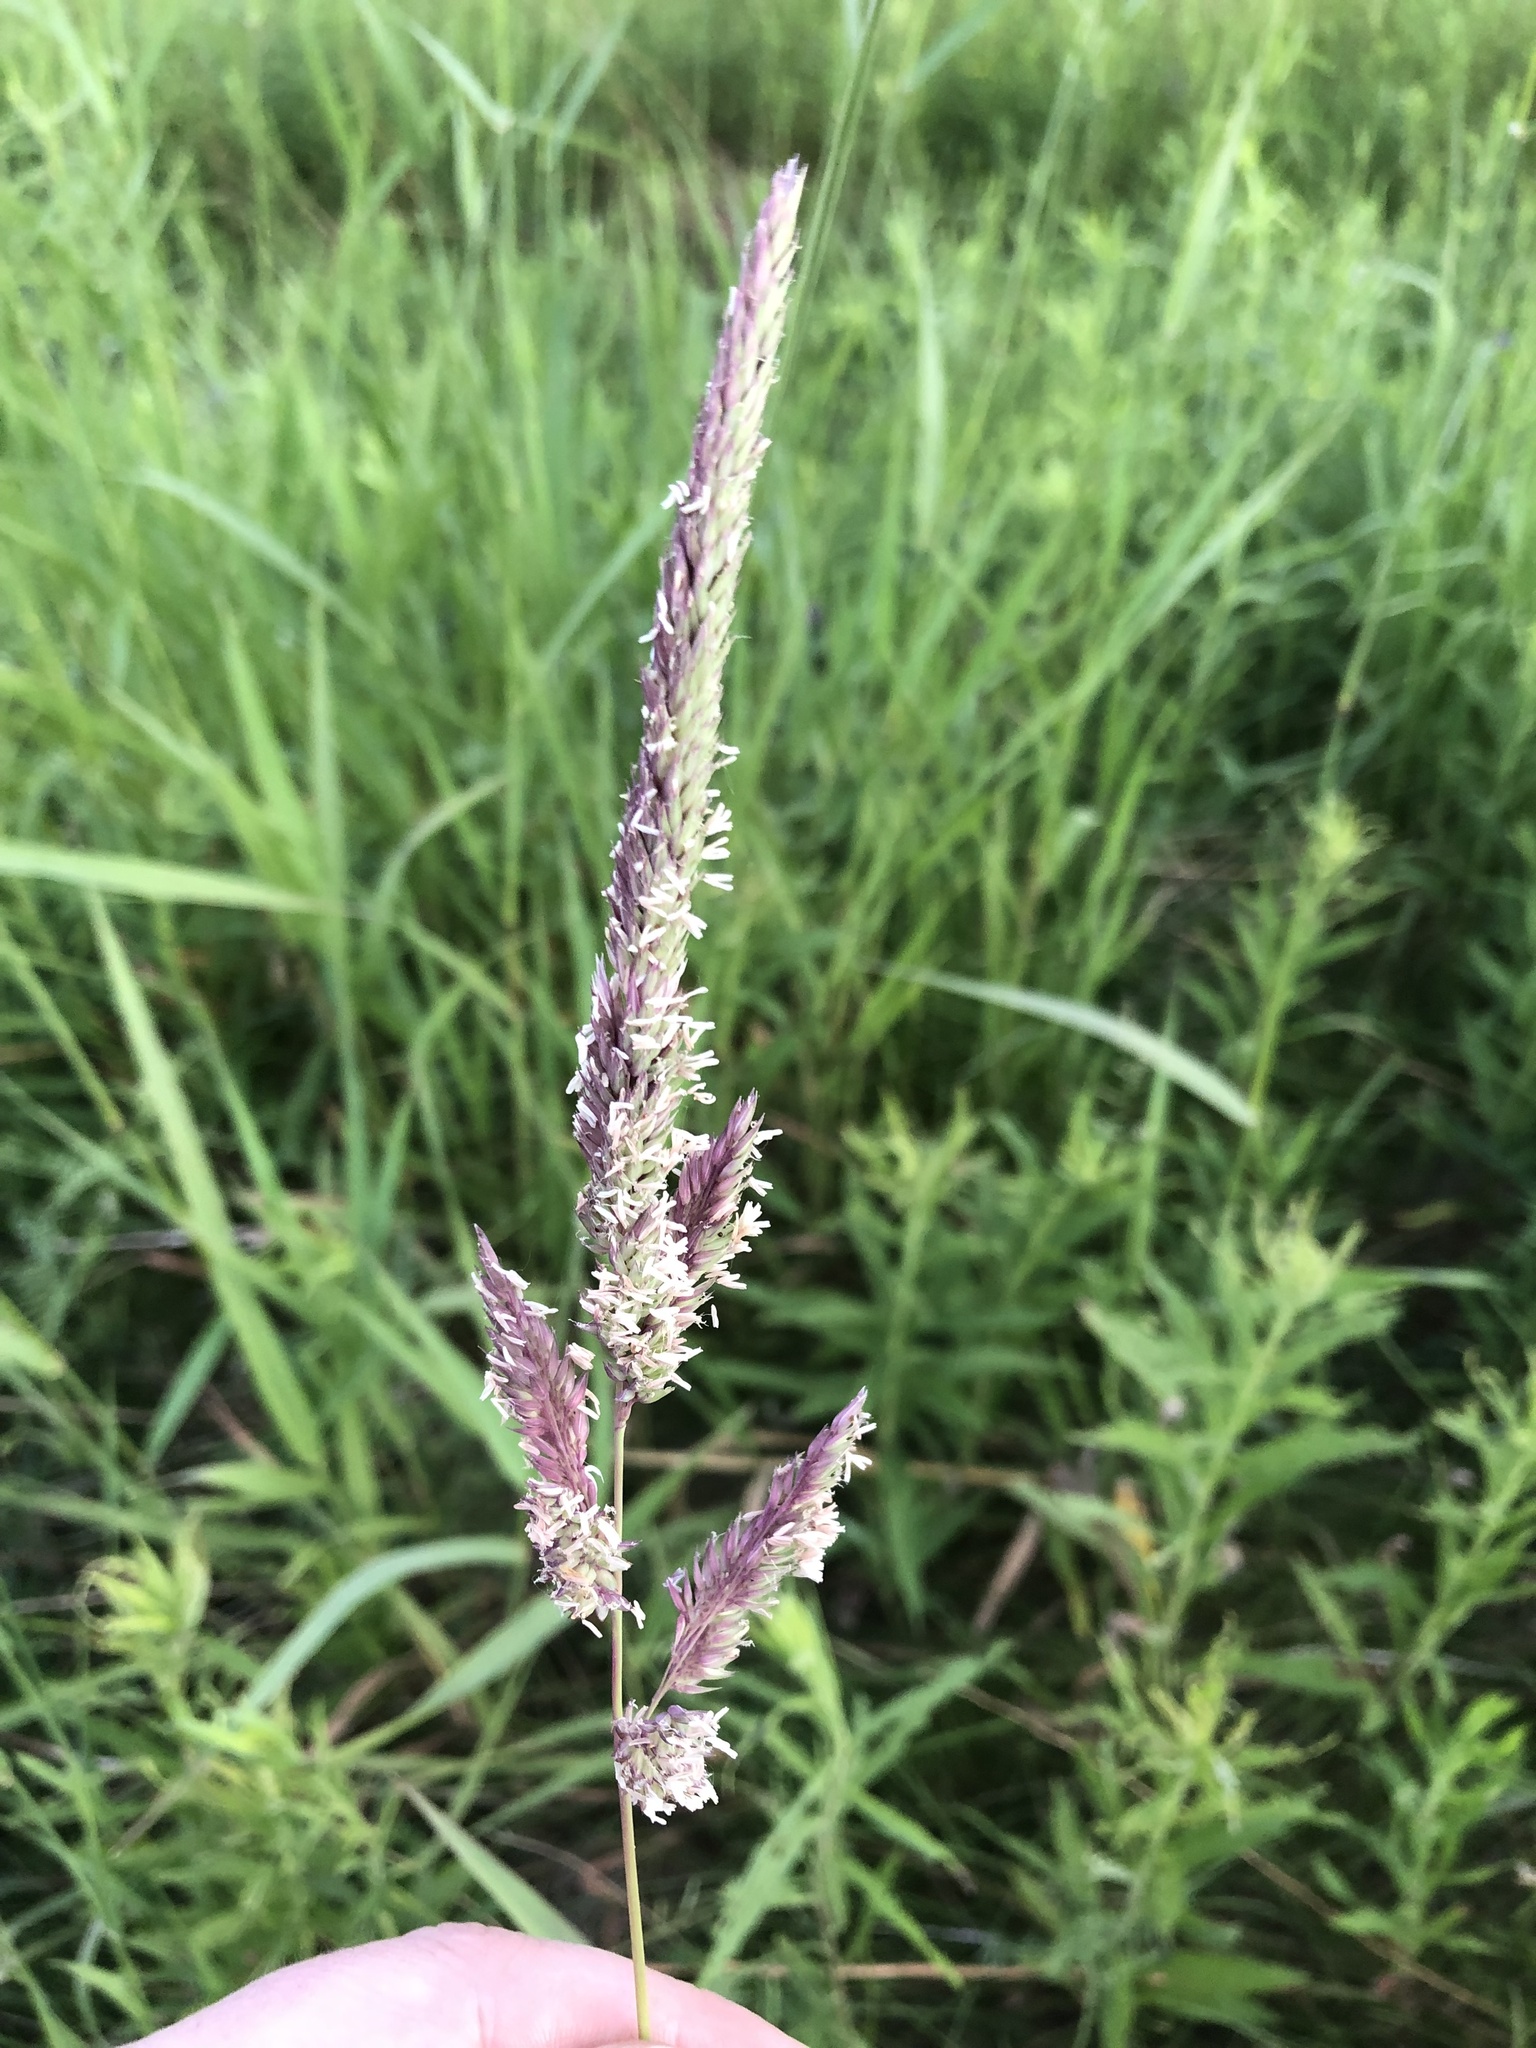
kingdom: Plantae
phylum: Tracheophyta
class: Liliopsida
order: Poales
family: Poaceae
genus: Phalaris
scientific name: Phalaris arundinacea
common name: Reed canary-grass
